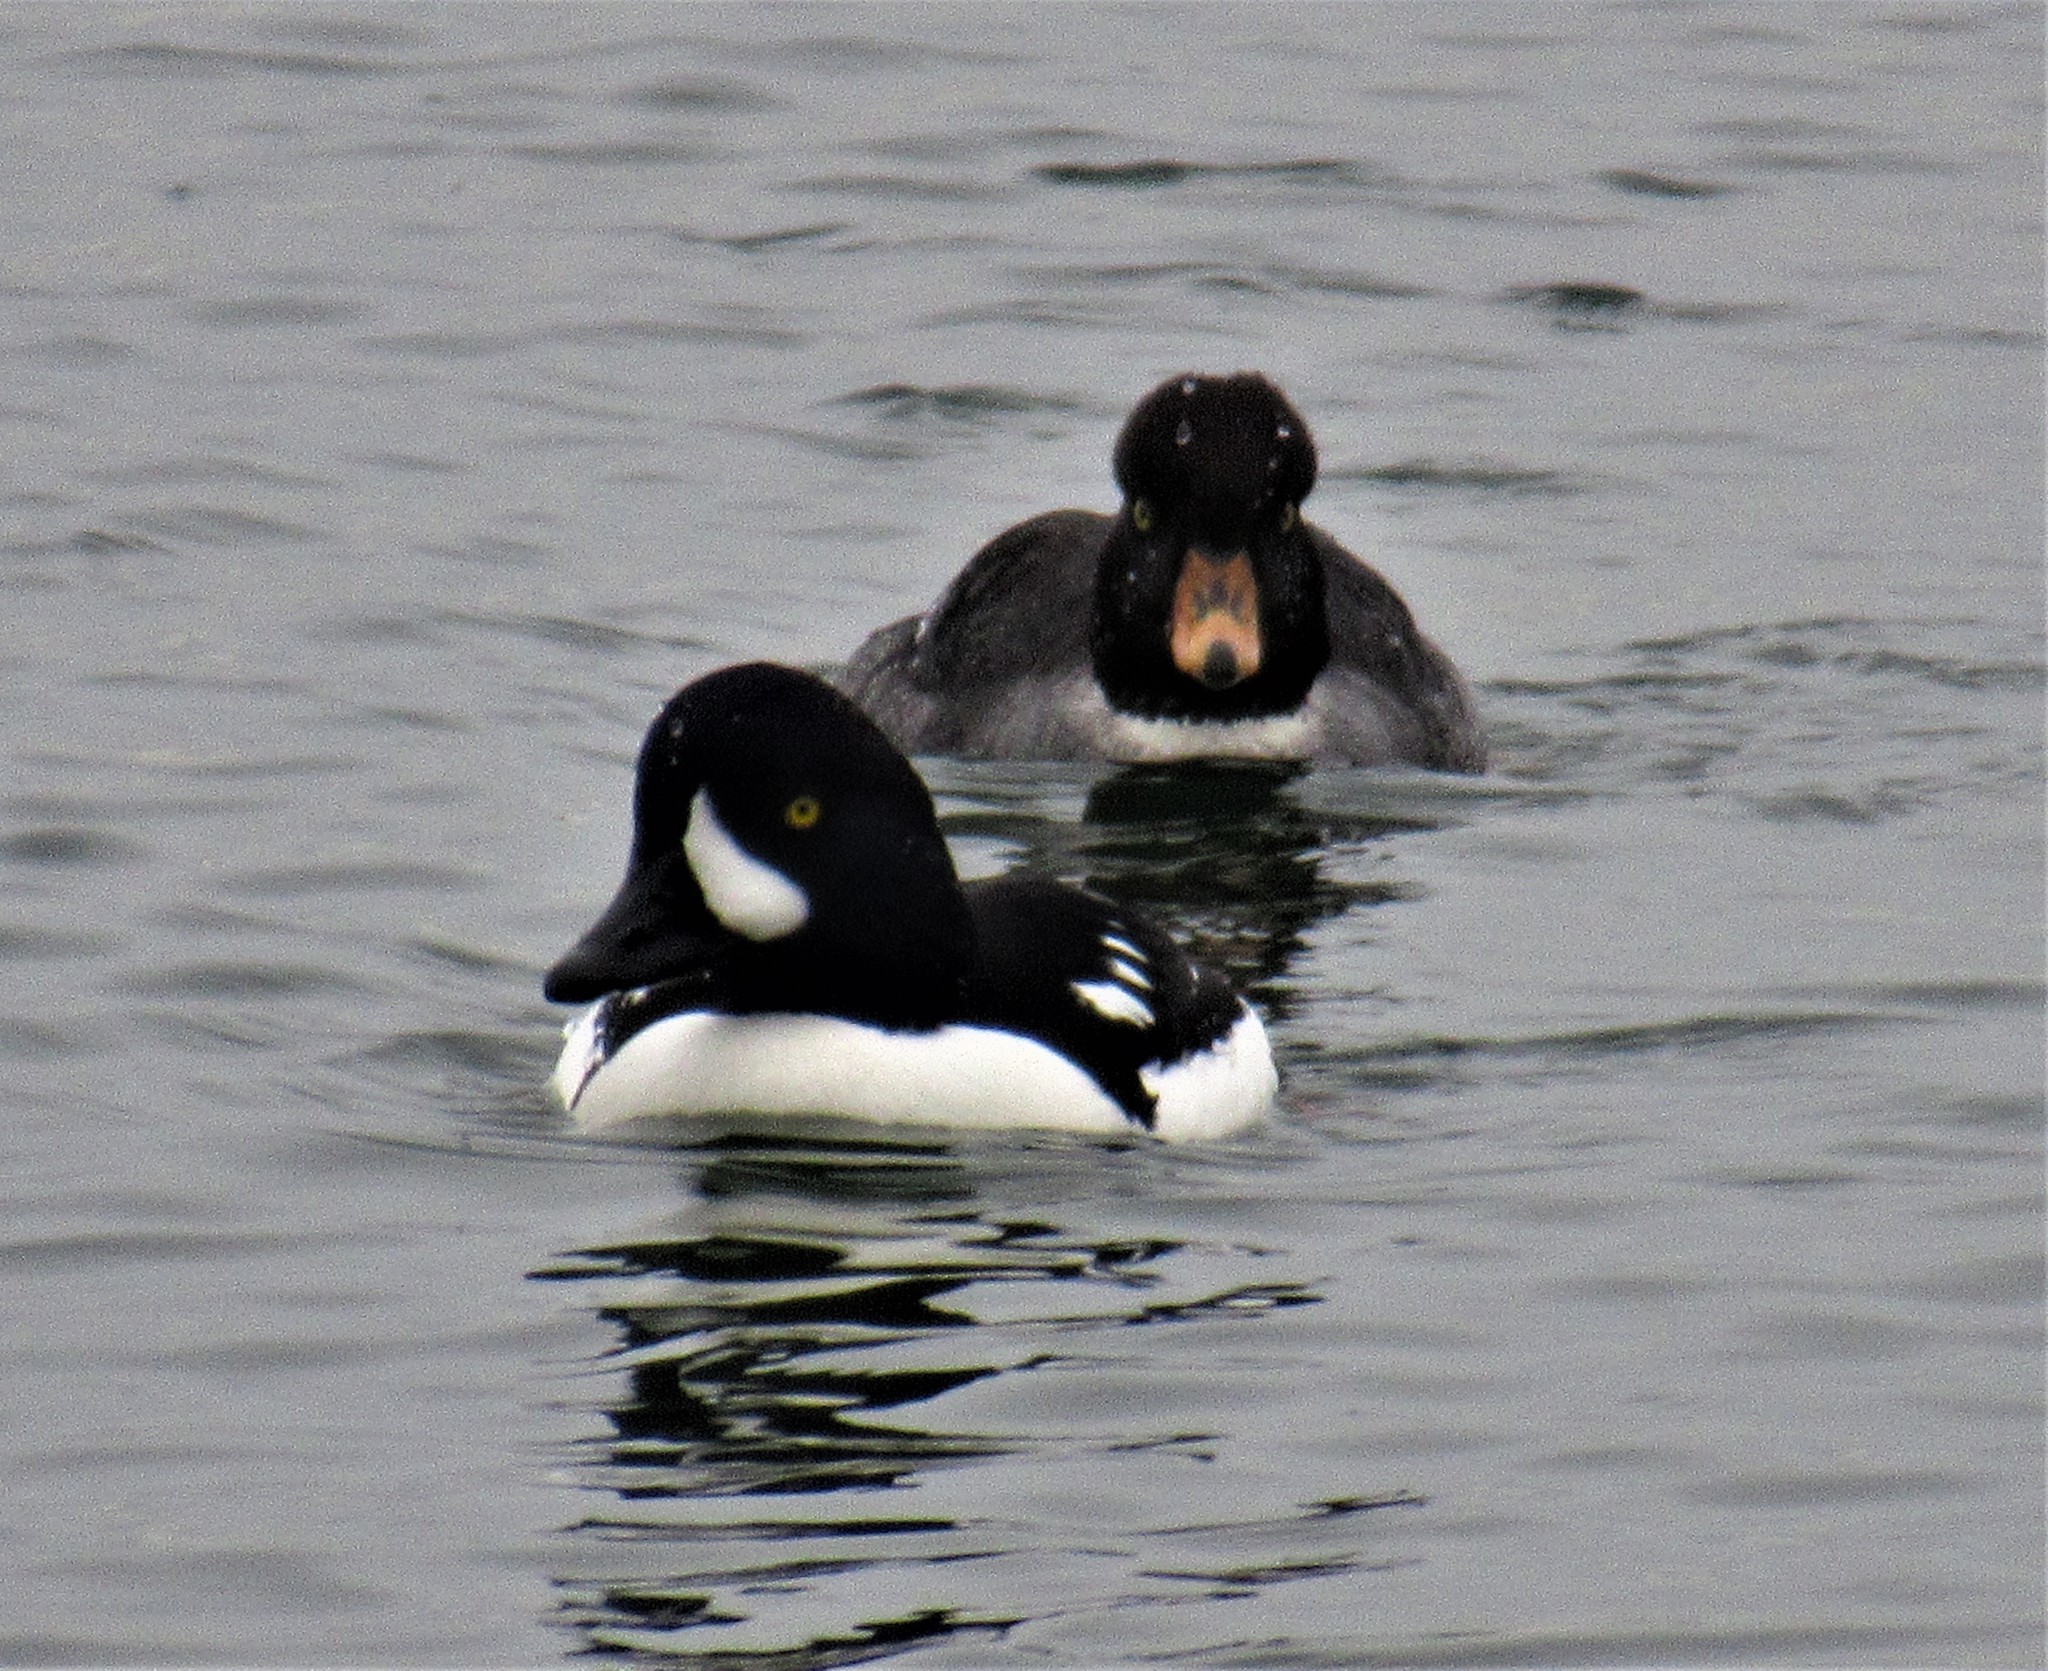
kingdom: Animalia
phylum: Chordata
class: Aves
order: Anseriformes
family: Anatidae
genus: Bucephala
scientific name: Bucephala islandica
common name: Barrow's goldeneye
